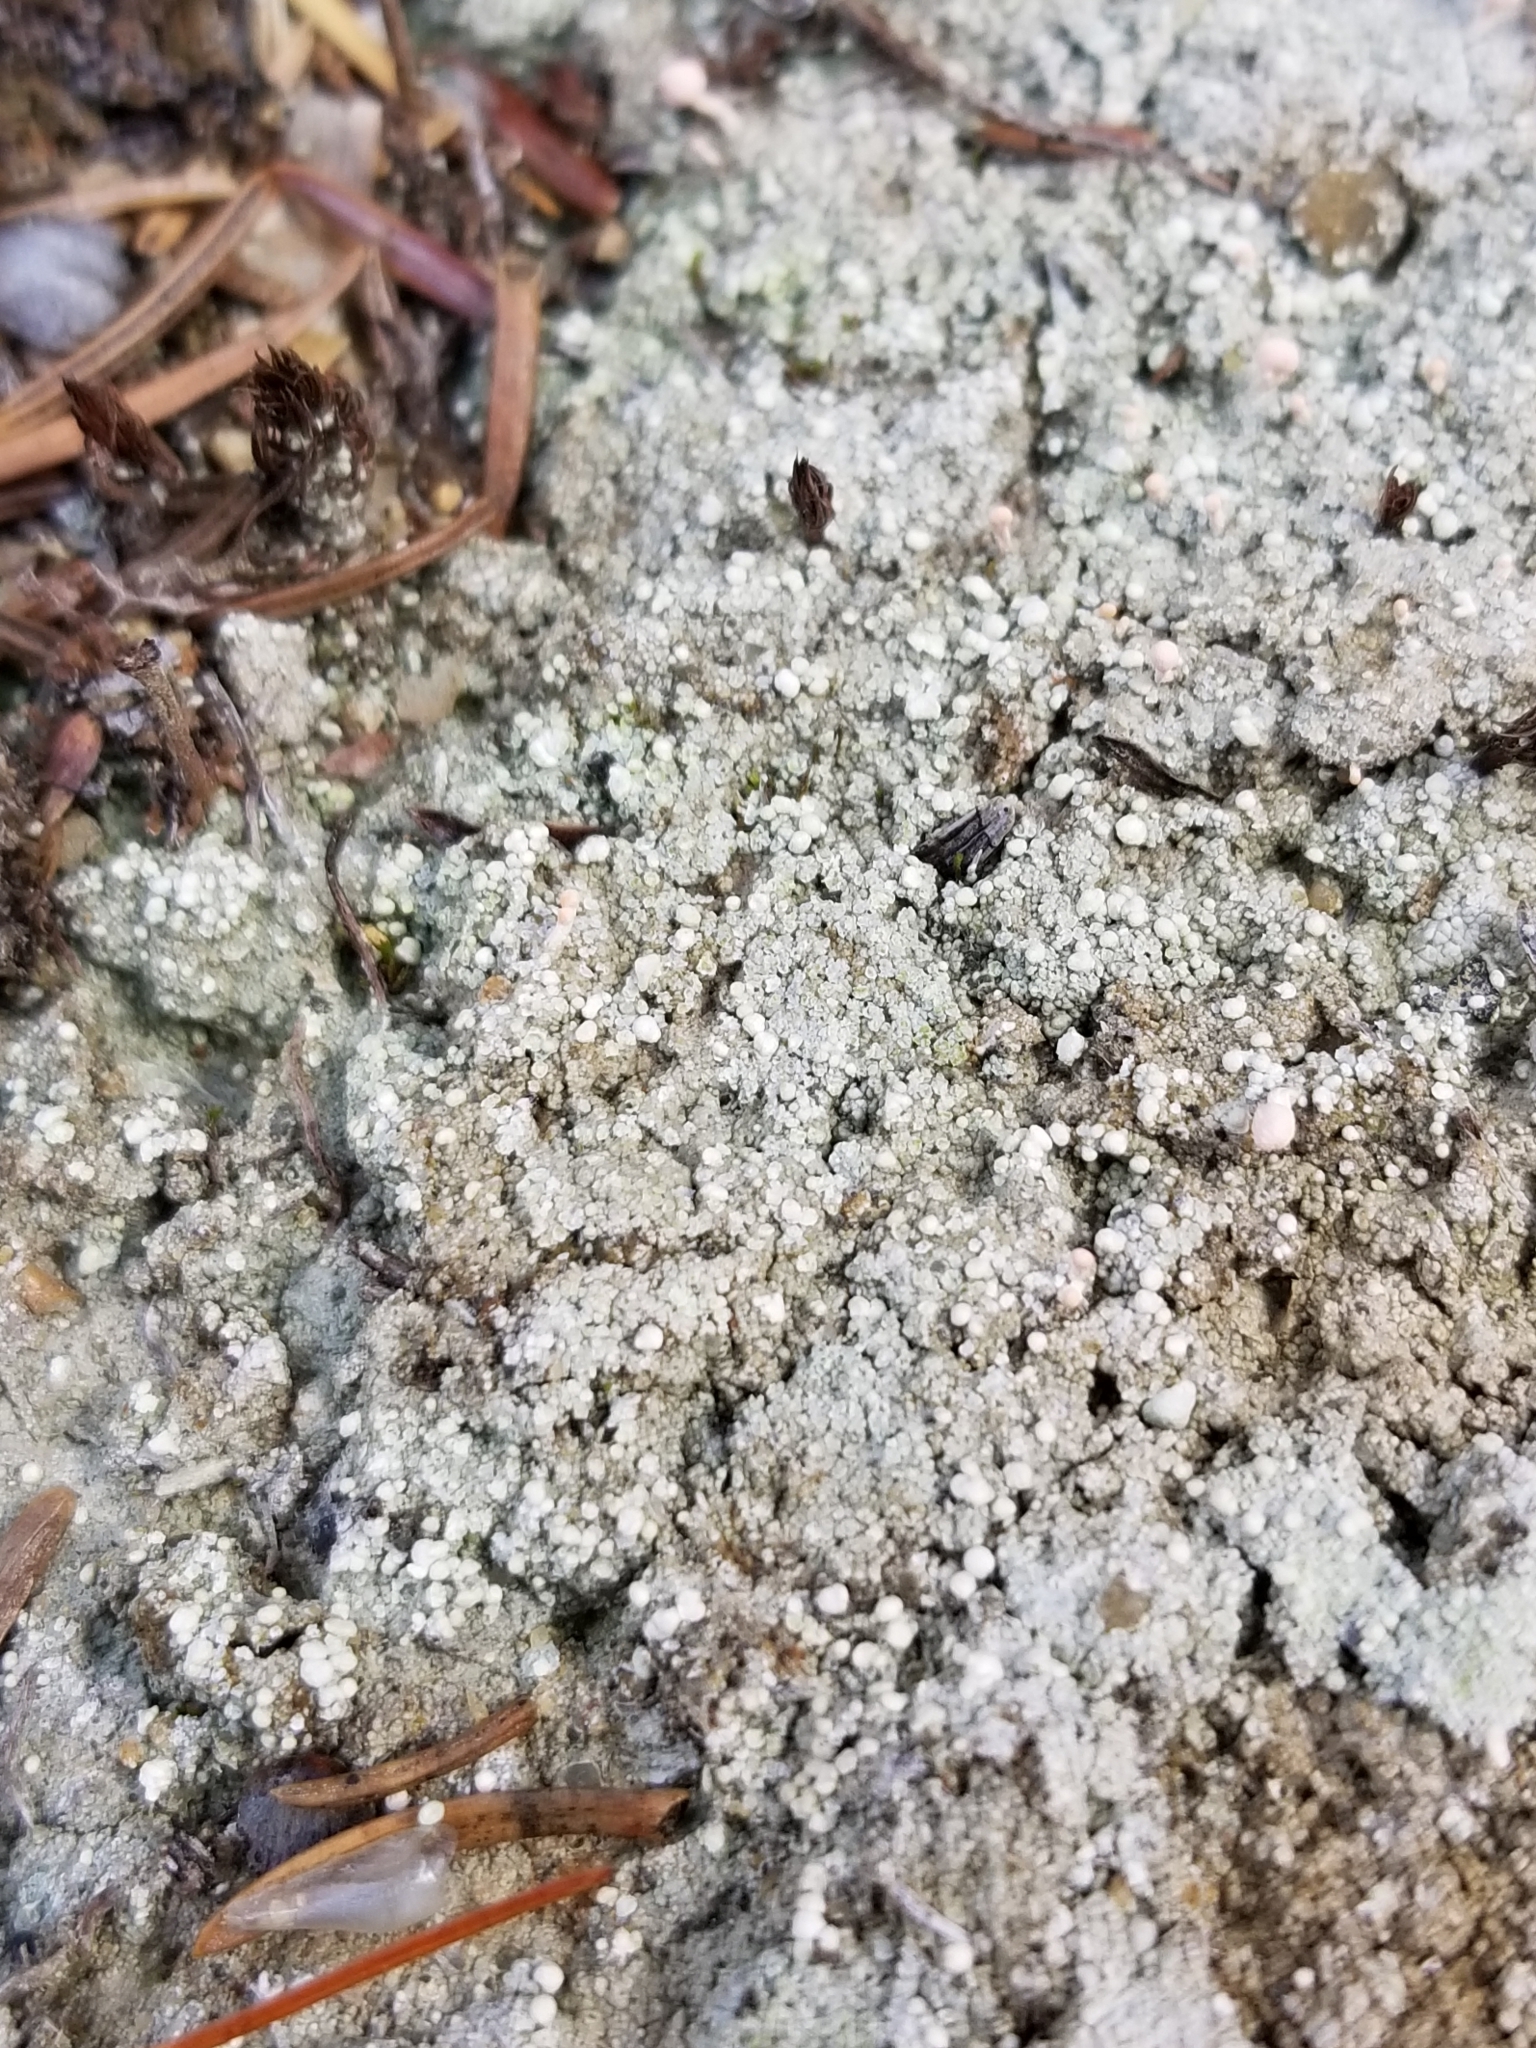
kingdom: Fungi
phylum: Ascomycota
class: Lecanoromycetes
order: Pertusariales
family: Icmadophilaceae
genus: Dibaeis
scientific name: Dibaeis baeomyces
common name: Pink earth lichen
